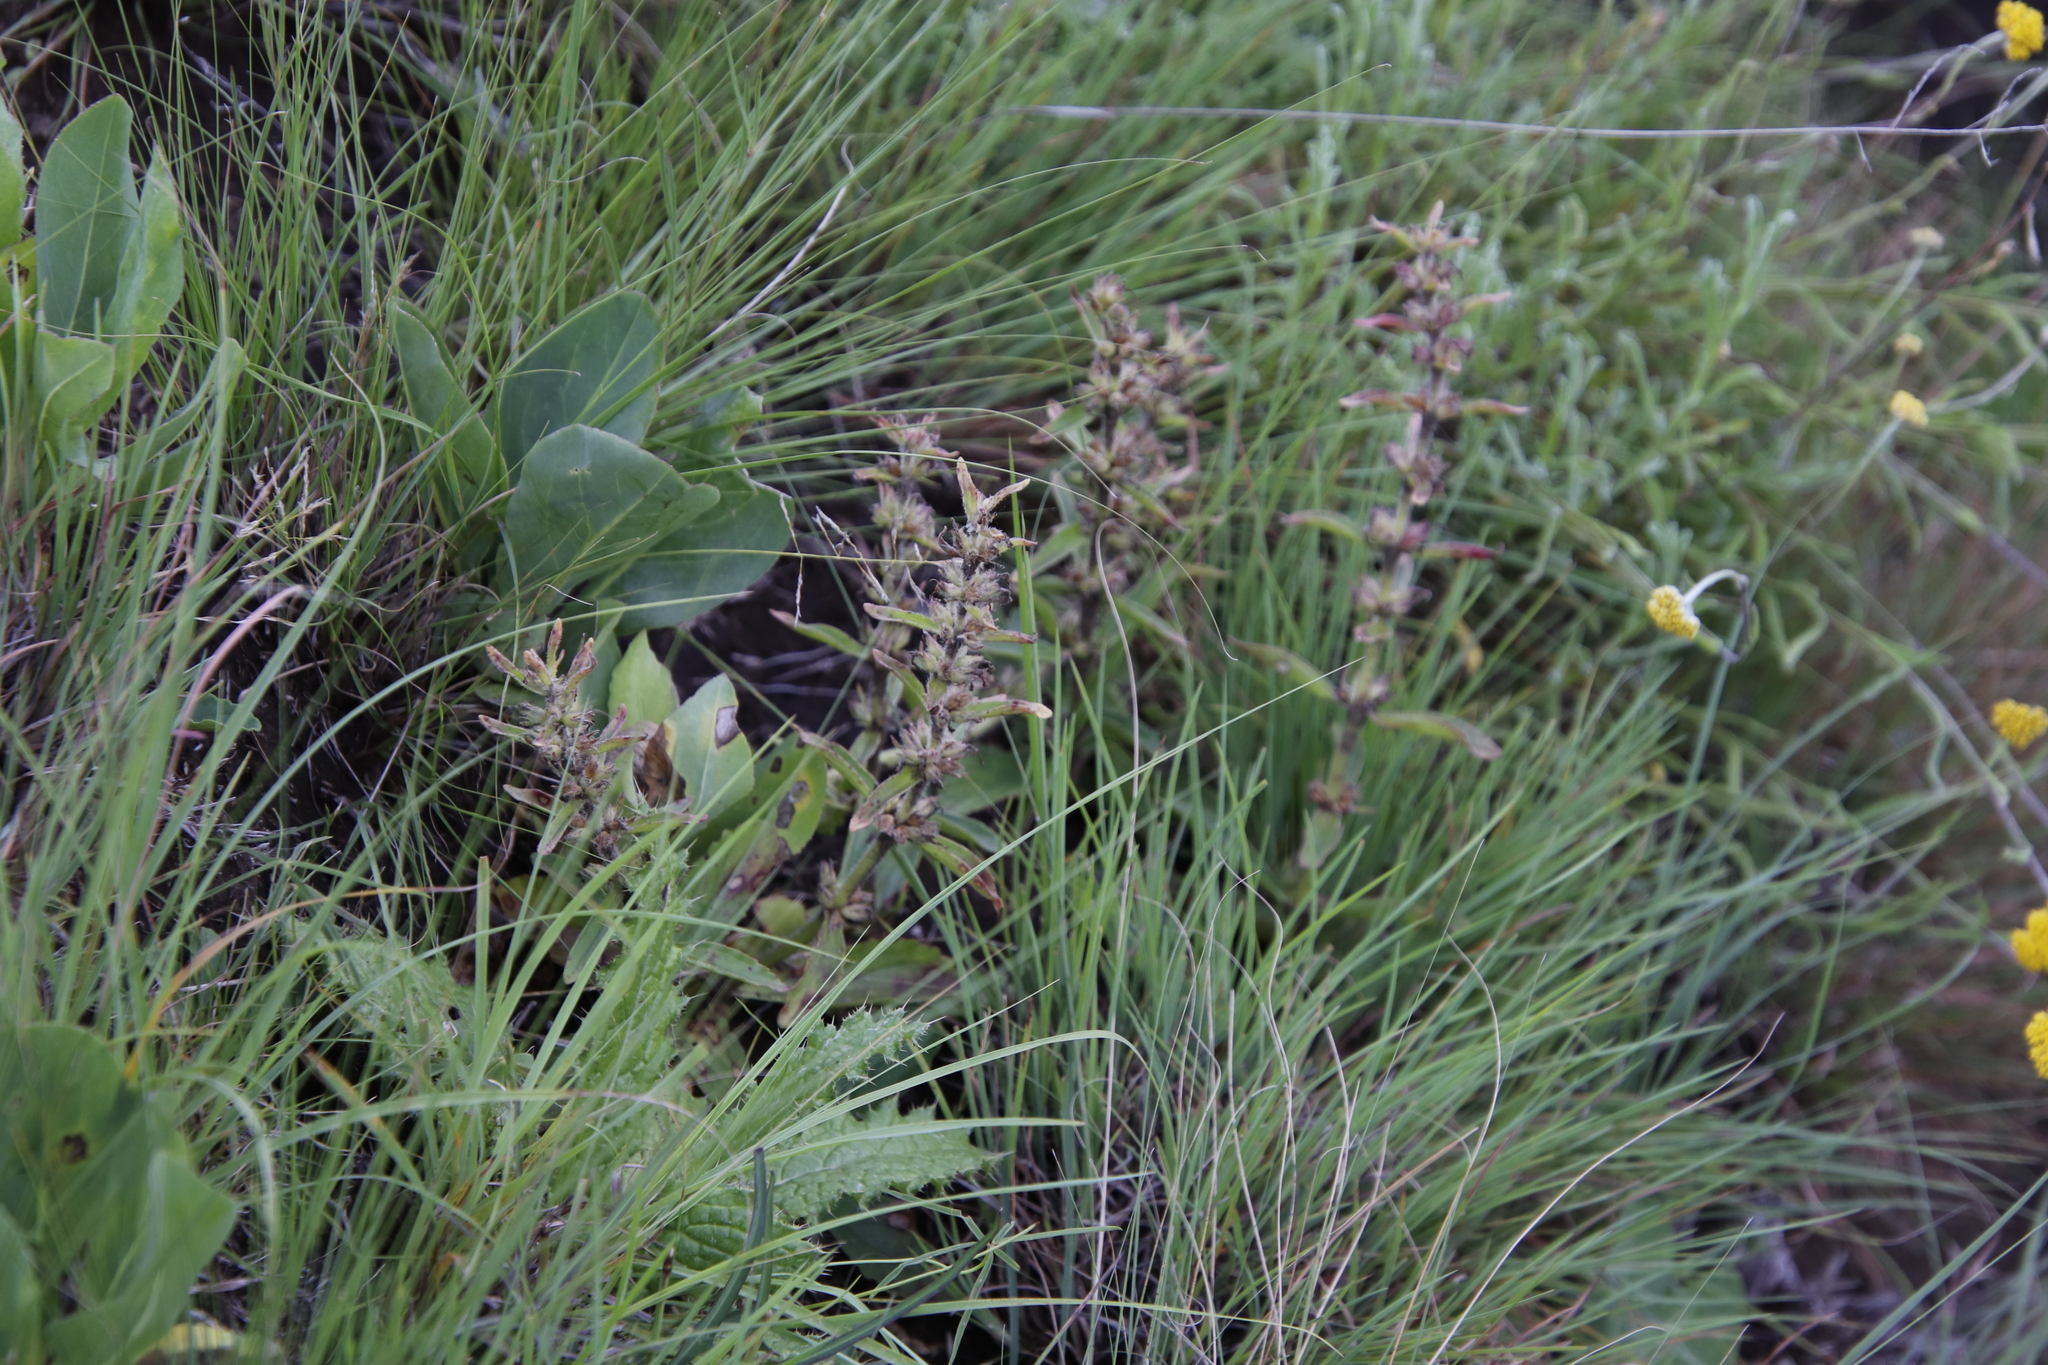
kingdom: Plantae
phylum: Tracheophyta
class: Magnoliopsida
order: Lamiales
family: Lamiaceae
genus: Ajuga
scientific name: Ajuga ophrydis
